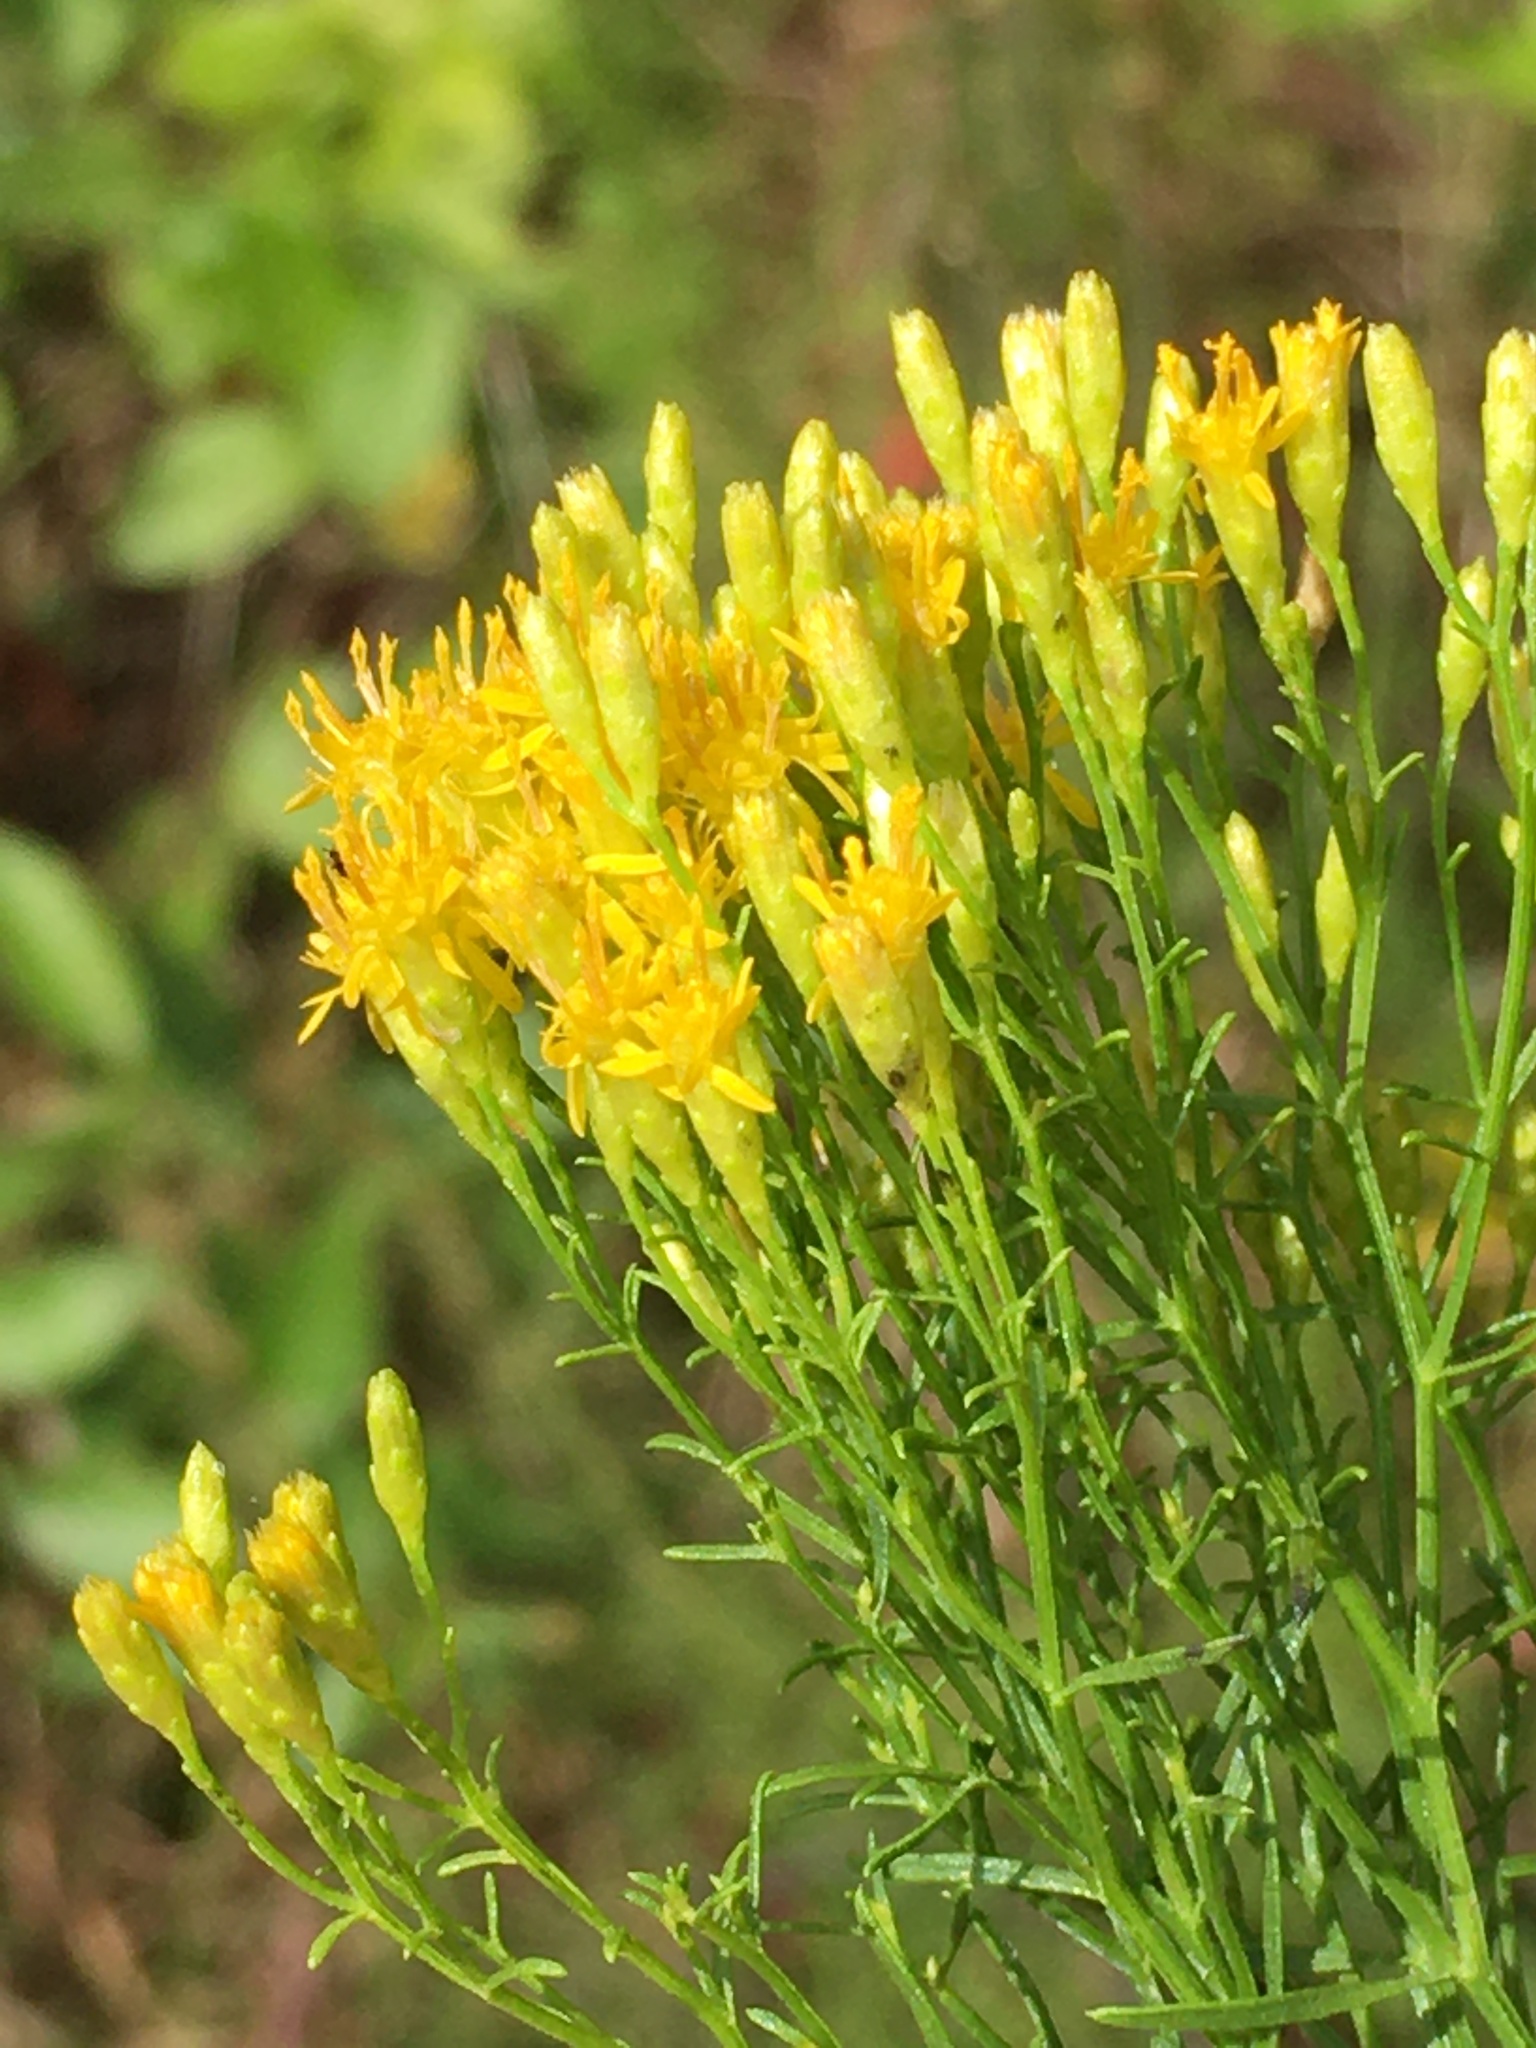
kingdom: Plantae
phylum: Tracheophyta
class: Magnoliopsida
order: Asterales
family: Asteraceae
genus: Euthamia
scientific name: Euthamia caroliniana
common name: Coastal plain goldentop
